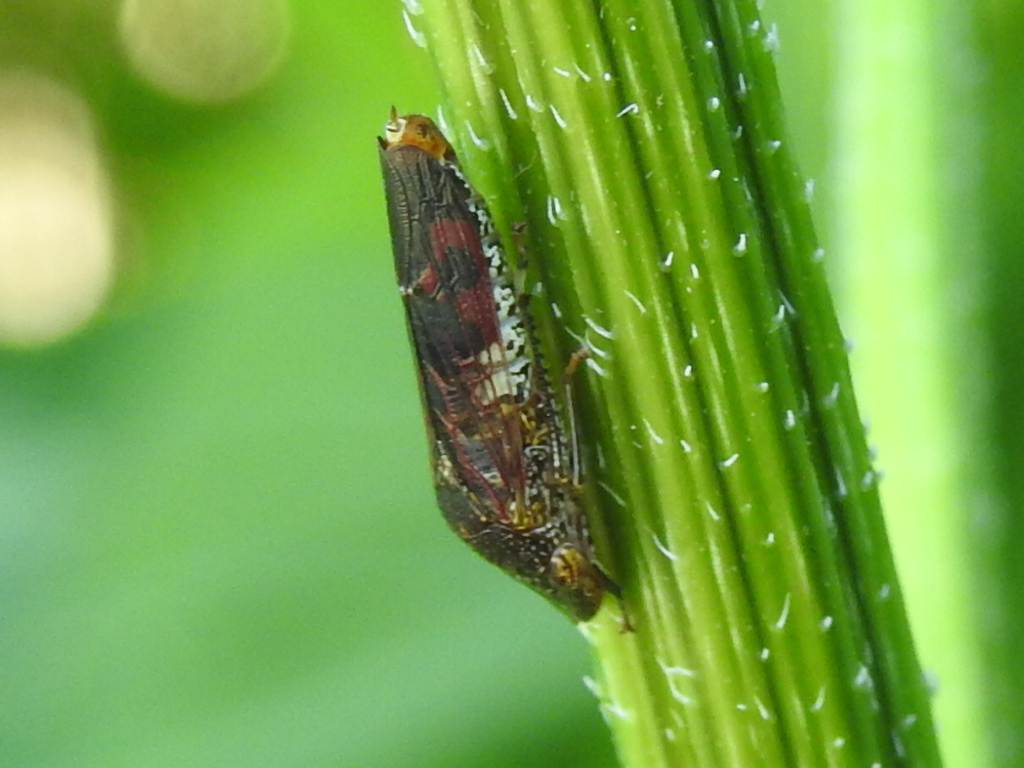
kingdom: Animalia
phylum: Arthropoda
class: Insecta
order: Hemiptera
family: Cicadellidae
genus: Homalodisca
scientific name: Homalodisca vitripennis
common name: Glassy-winged sharpshooter
